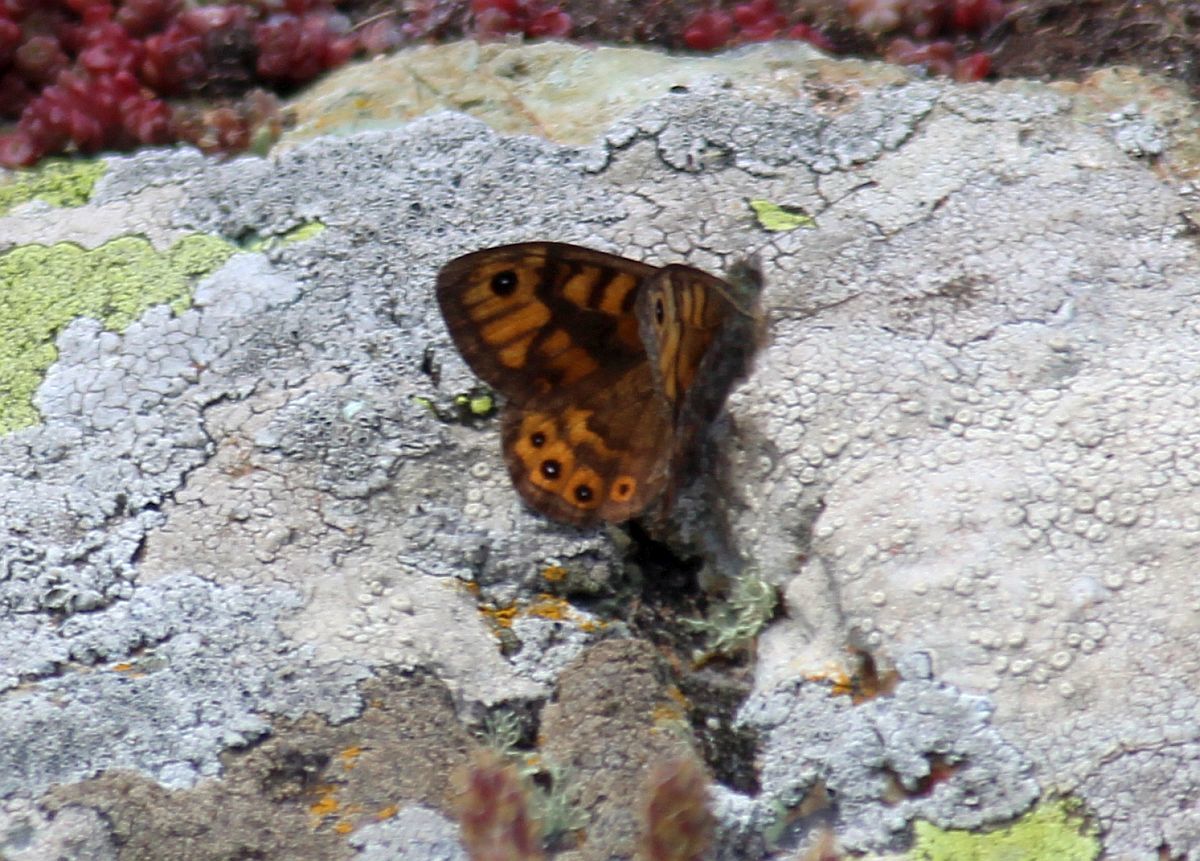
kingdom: Animalia
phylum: Arthropoda
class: Insecta
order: Lepidoptera
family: Nymphalidae
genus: Pararge
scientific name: Pararge Lasiommata megera
